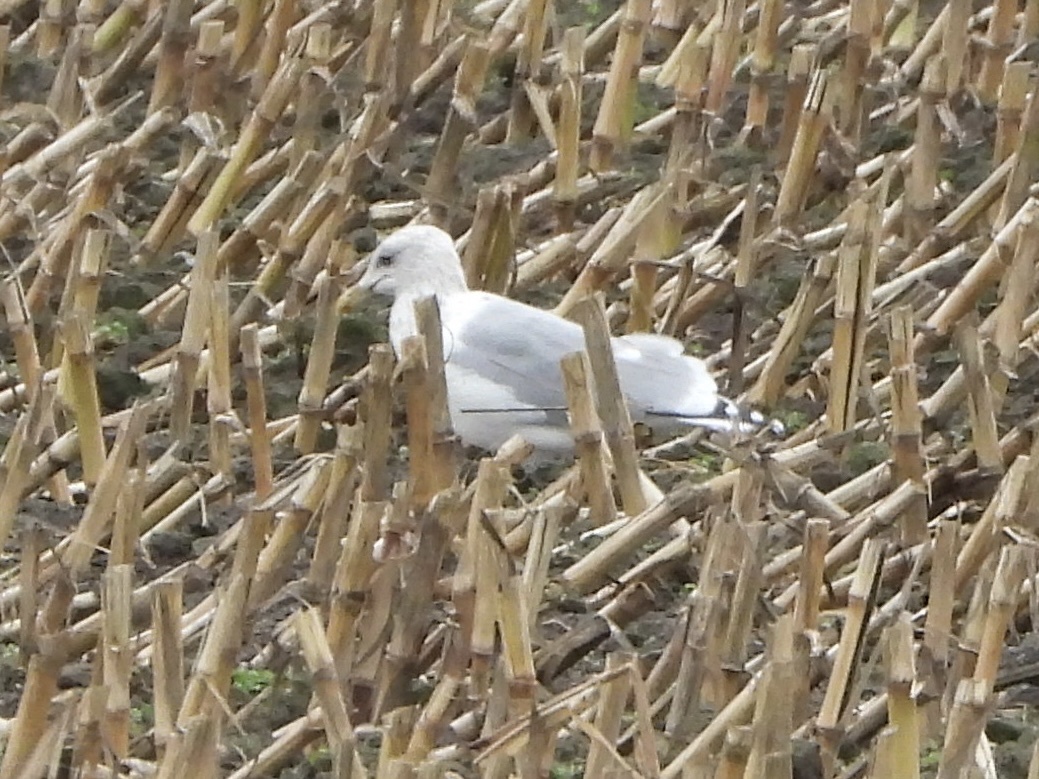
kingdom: Animalia
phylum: Chordata
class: Aves
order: Charadriiformes
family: Laridae
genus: Larus
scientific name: Larus
